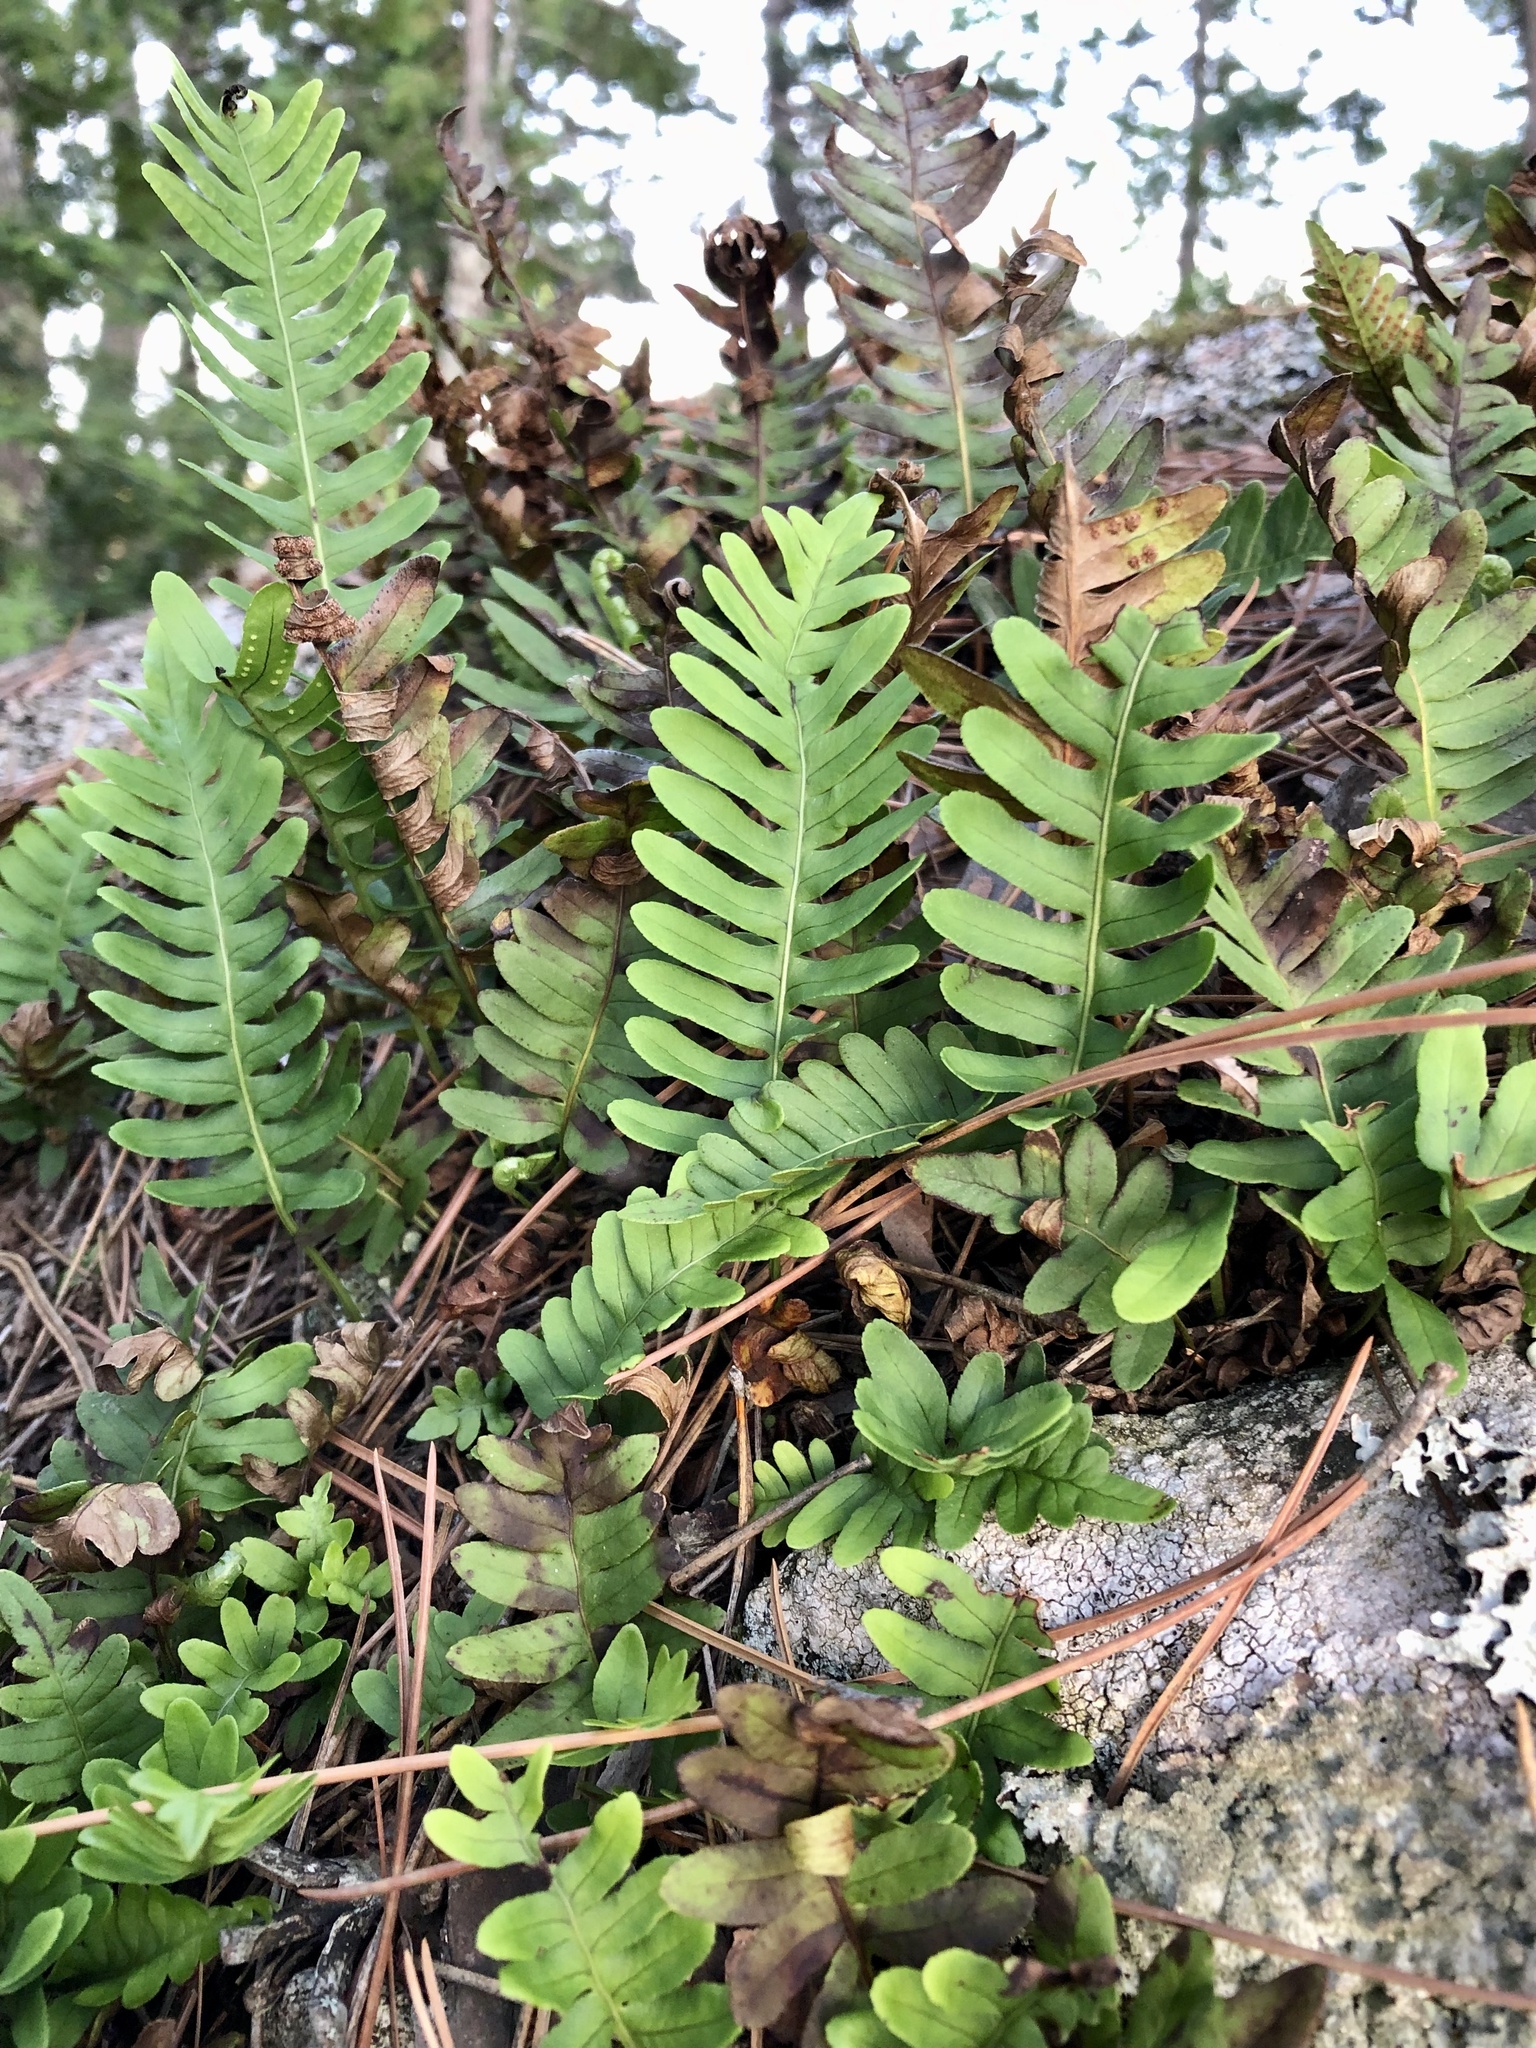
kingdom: Plantae
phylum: Tracheophyta
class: Polypodiopsida
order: Polypodiales
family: Polypodiaceae
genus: Polypodium
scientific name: Polypodium virginianum
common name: American wall fern
